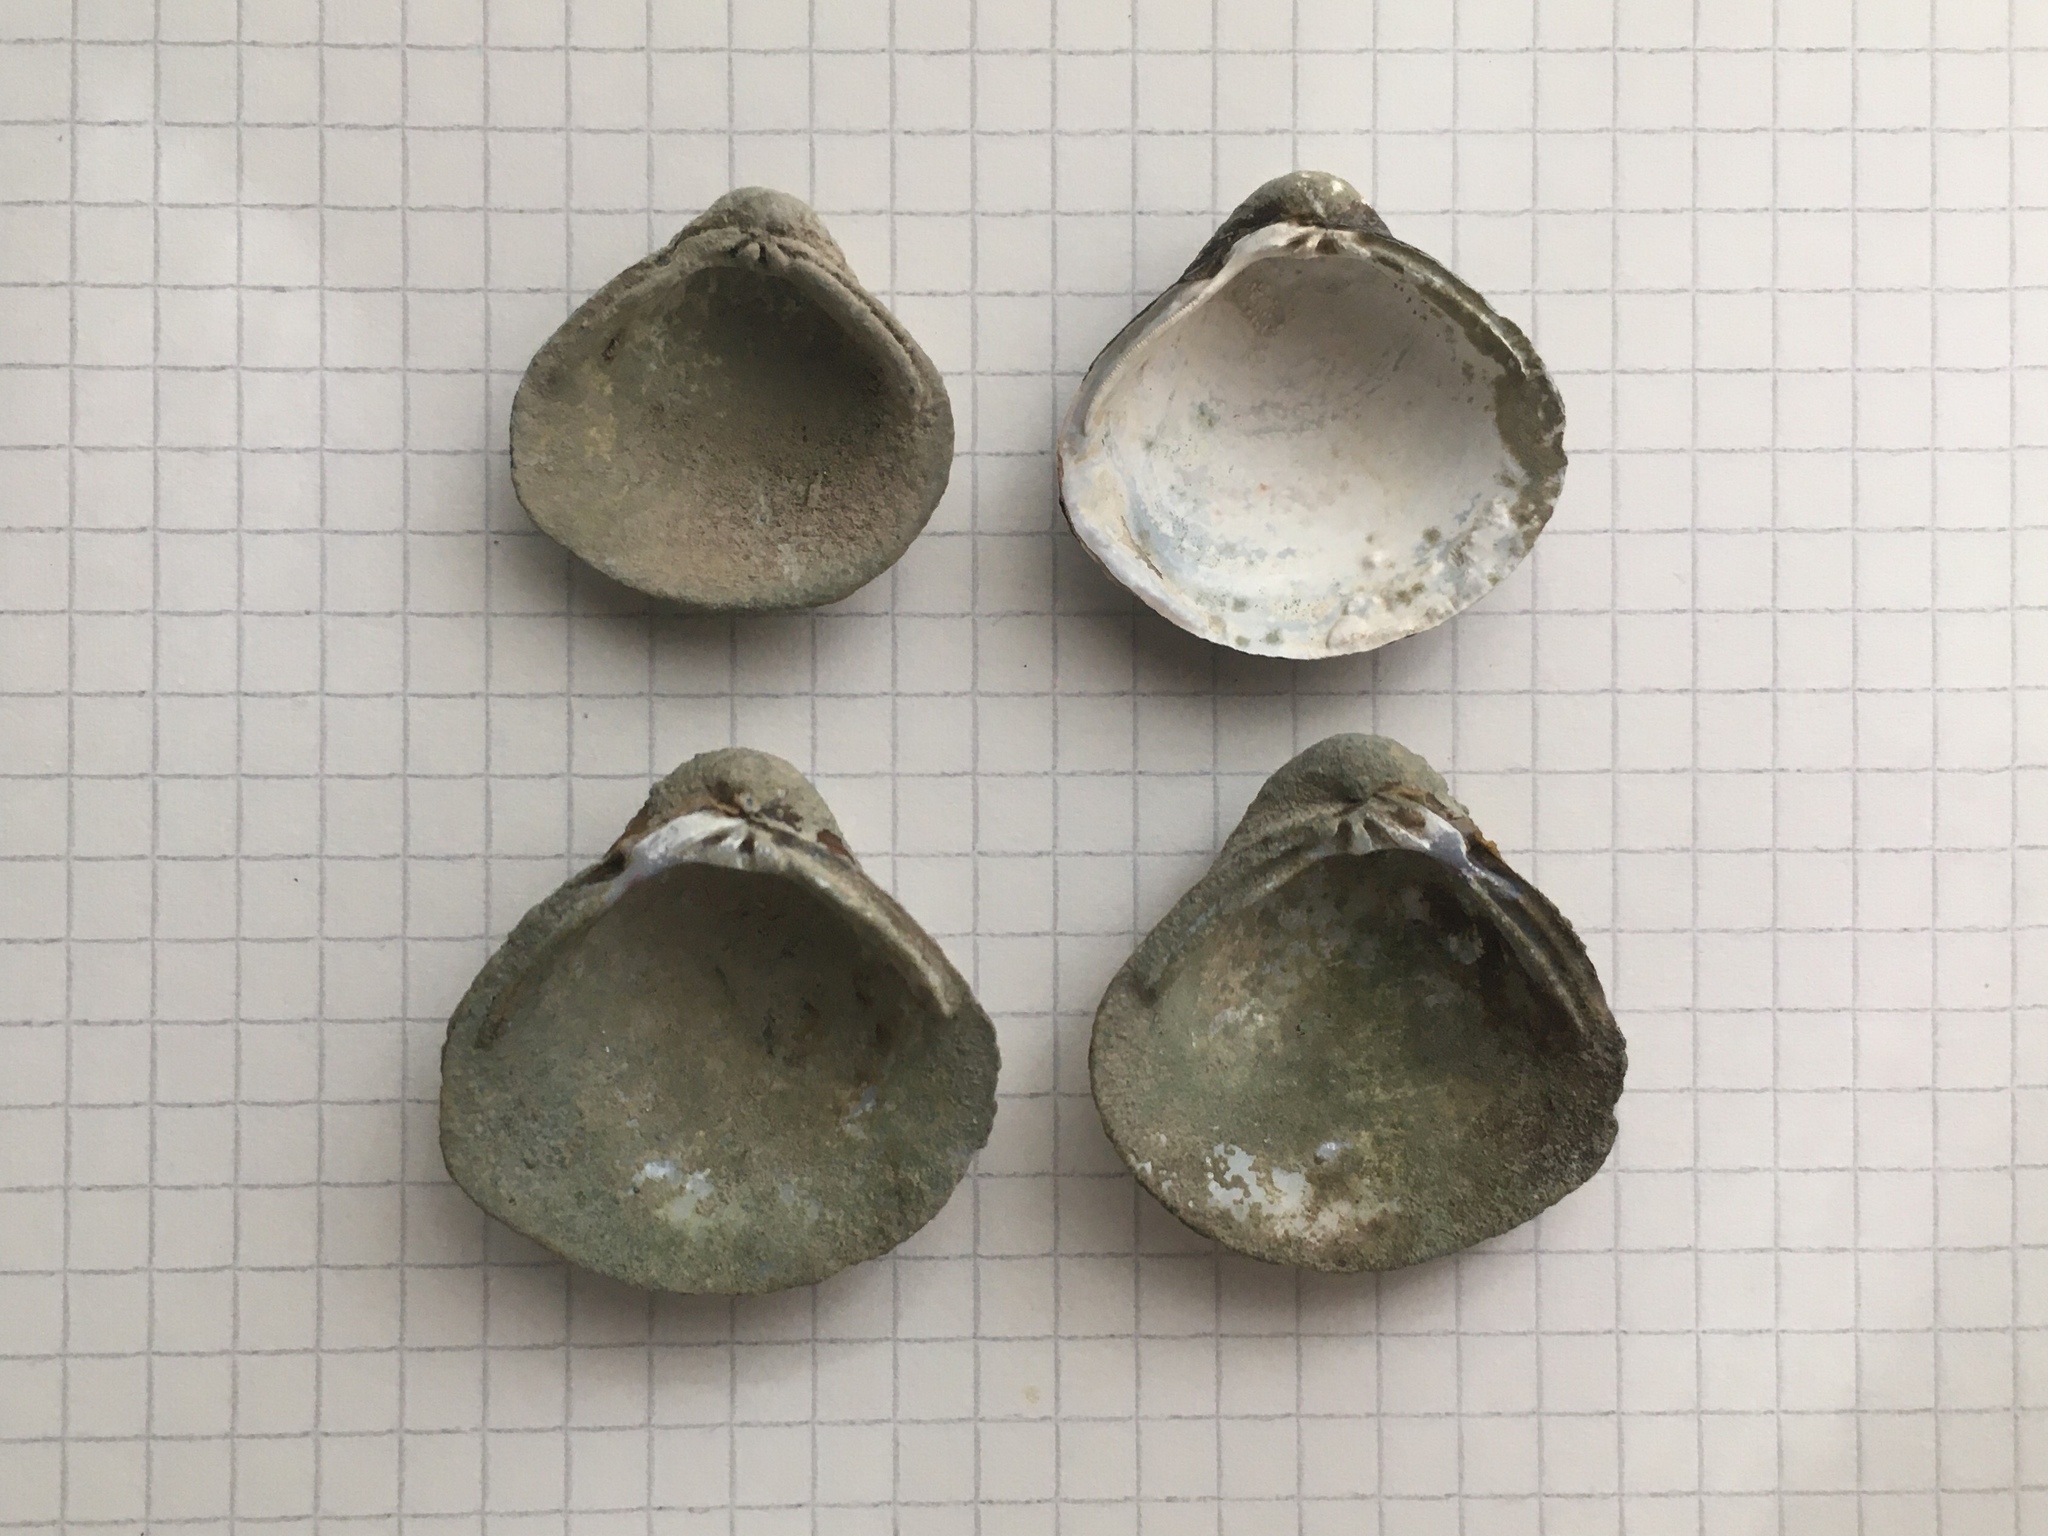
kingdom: Animalia
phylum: Mollusca
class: Bivalvia
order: Venerida
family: Cyrenidae
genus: Corbicula
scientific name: Corbicula fluminea
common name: Asian clam
